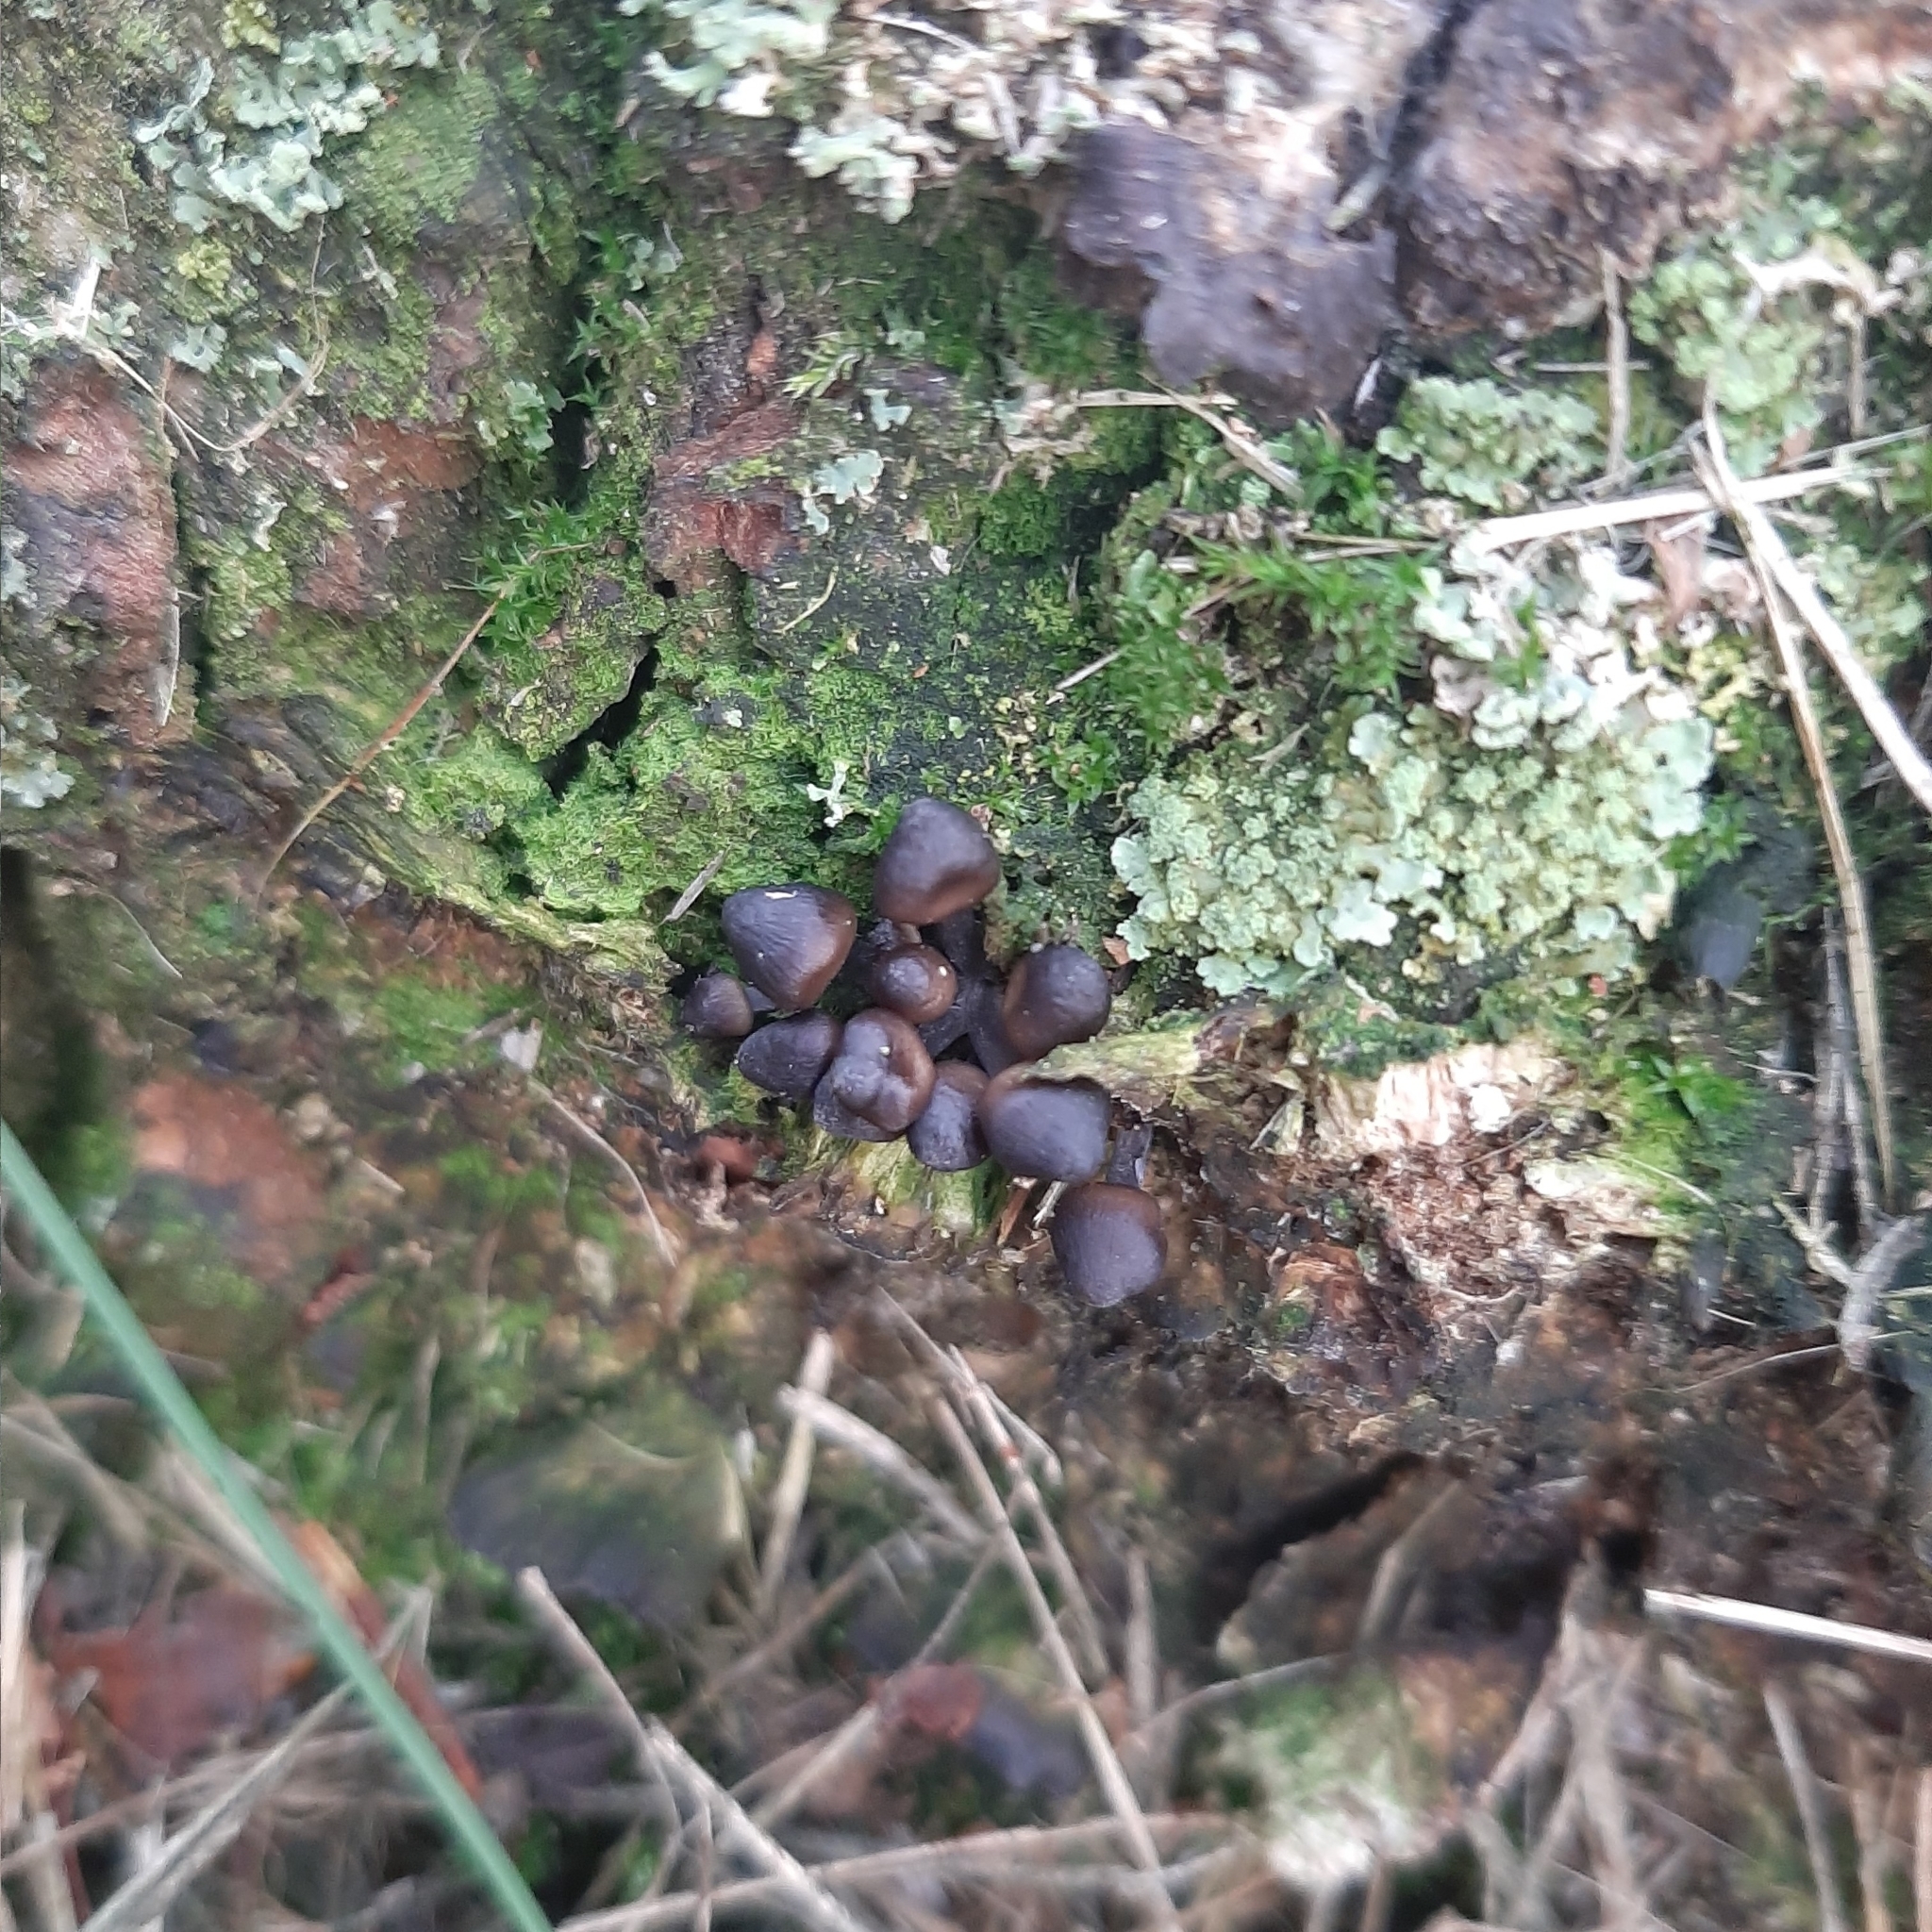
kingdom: Fungi
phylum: Basidiomycota
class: Agaricomycetes
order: Agaricales
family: Mycenaceae
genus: Mycena
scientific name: Mycena inclinata
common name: Clustered bonnet
